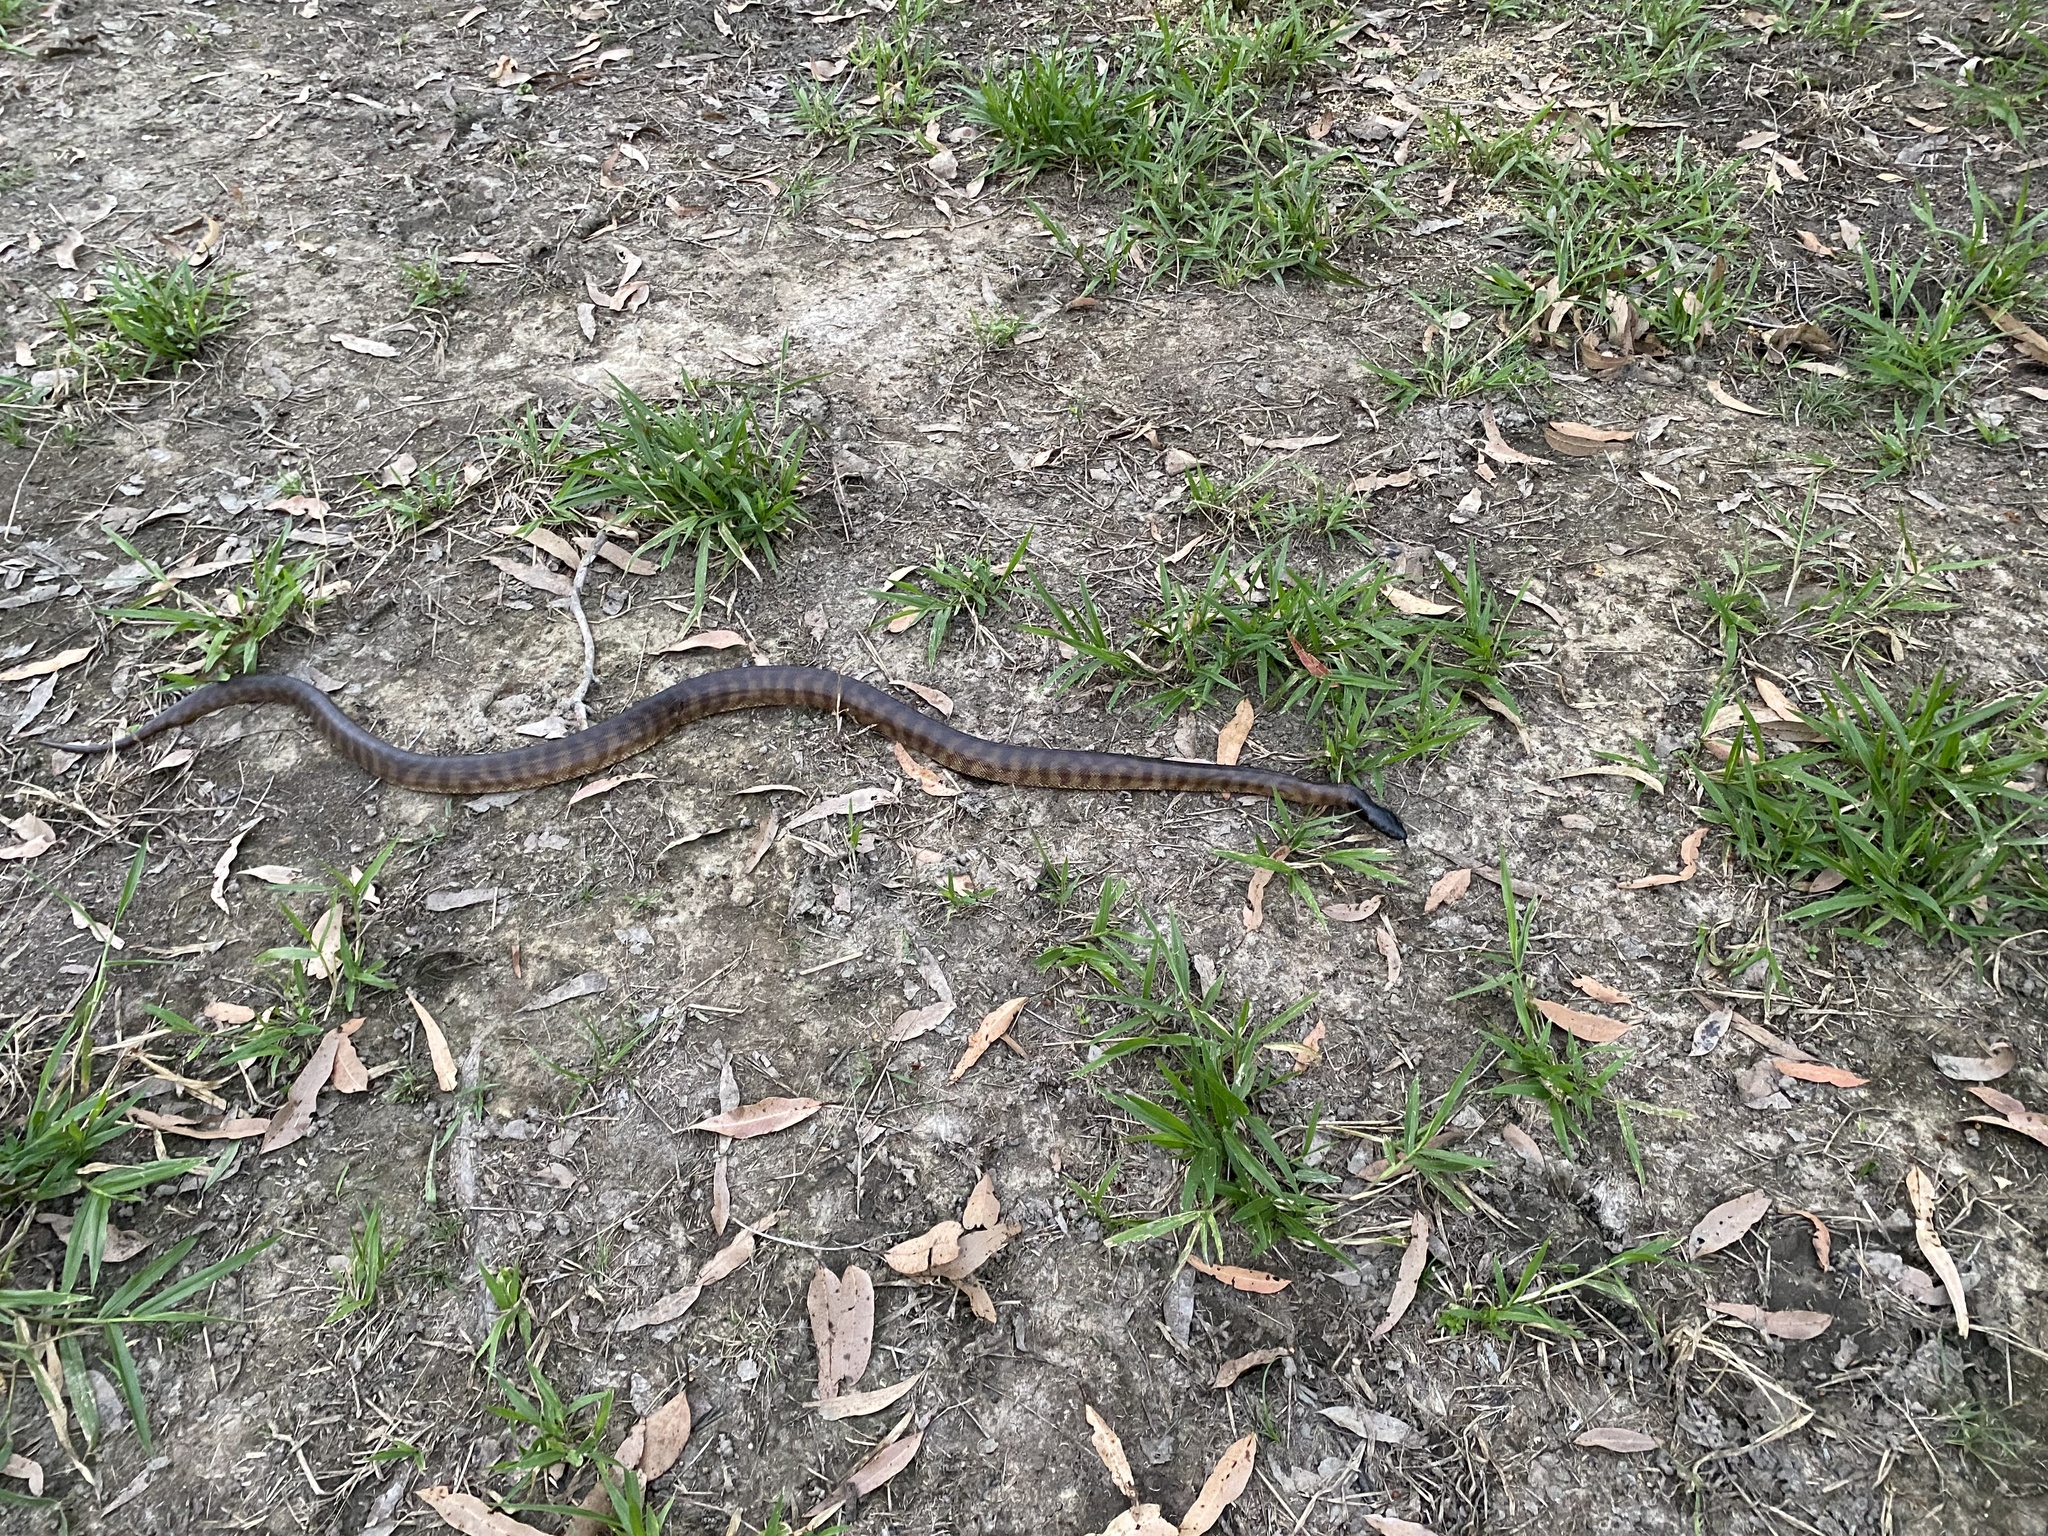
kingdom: Animalia
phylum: Chordata
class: Squamata
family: Pythonidae
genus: Aspidites
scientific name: Aspidites melanocephalus
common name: Black-headed python
